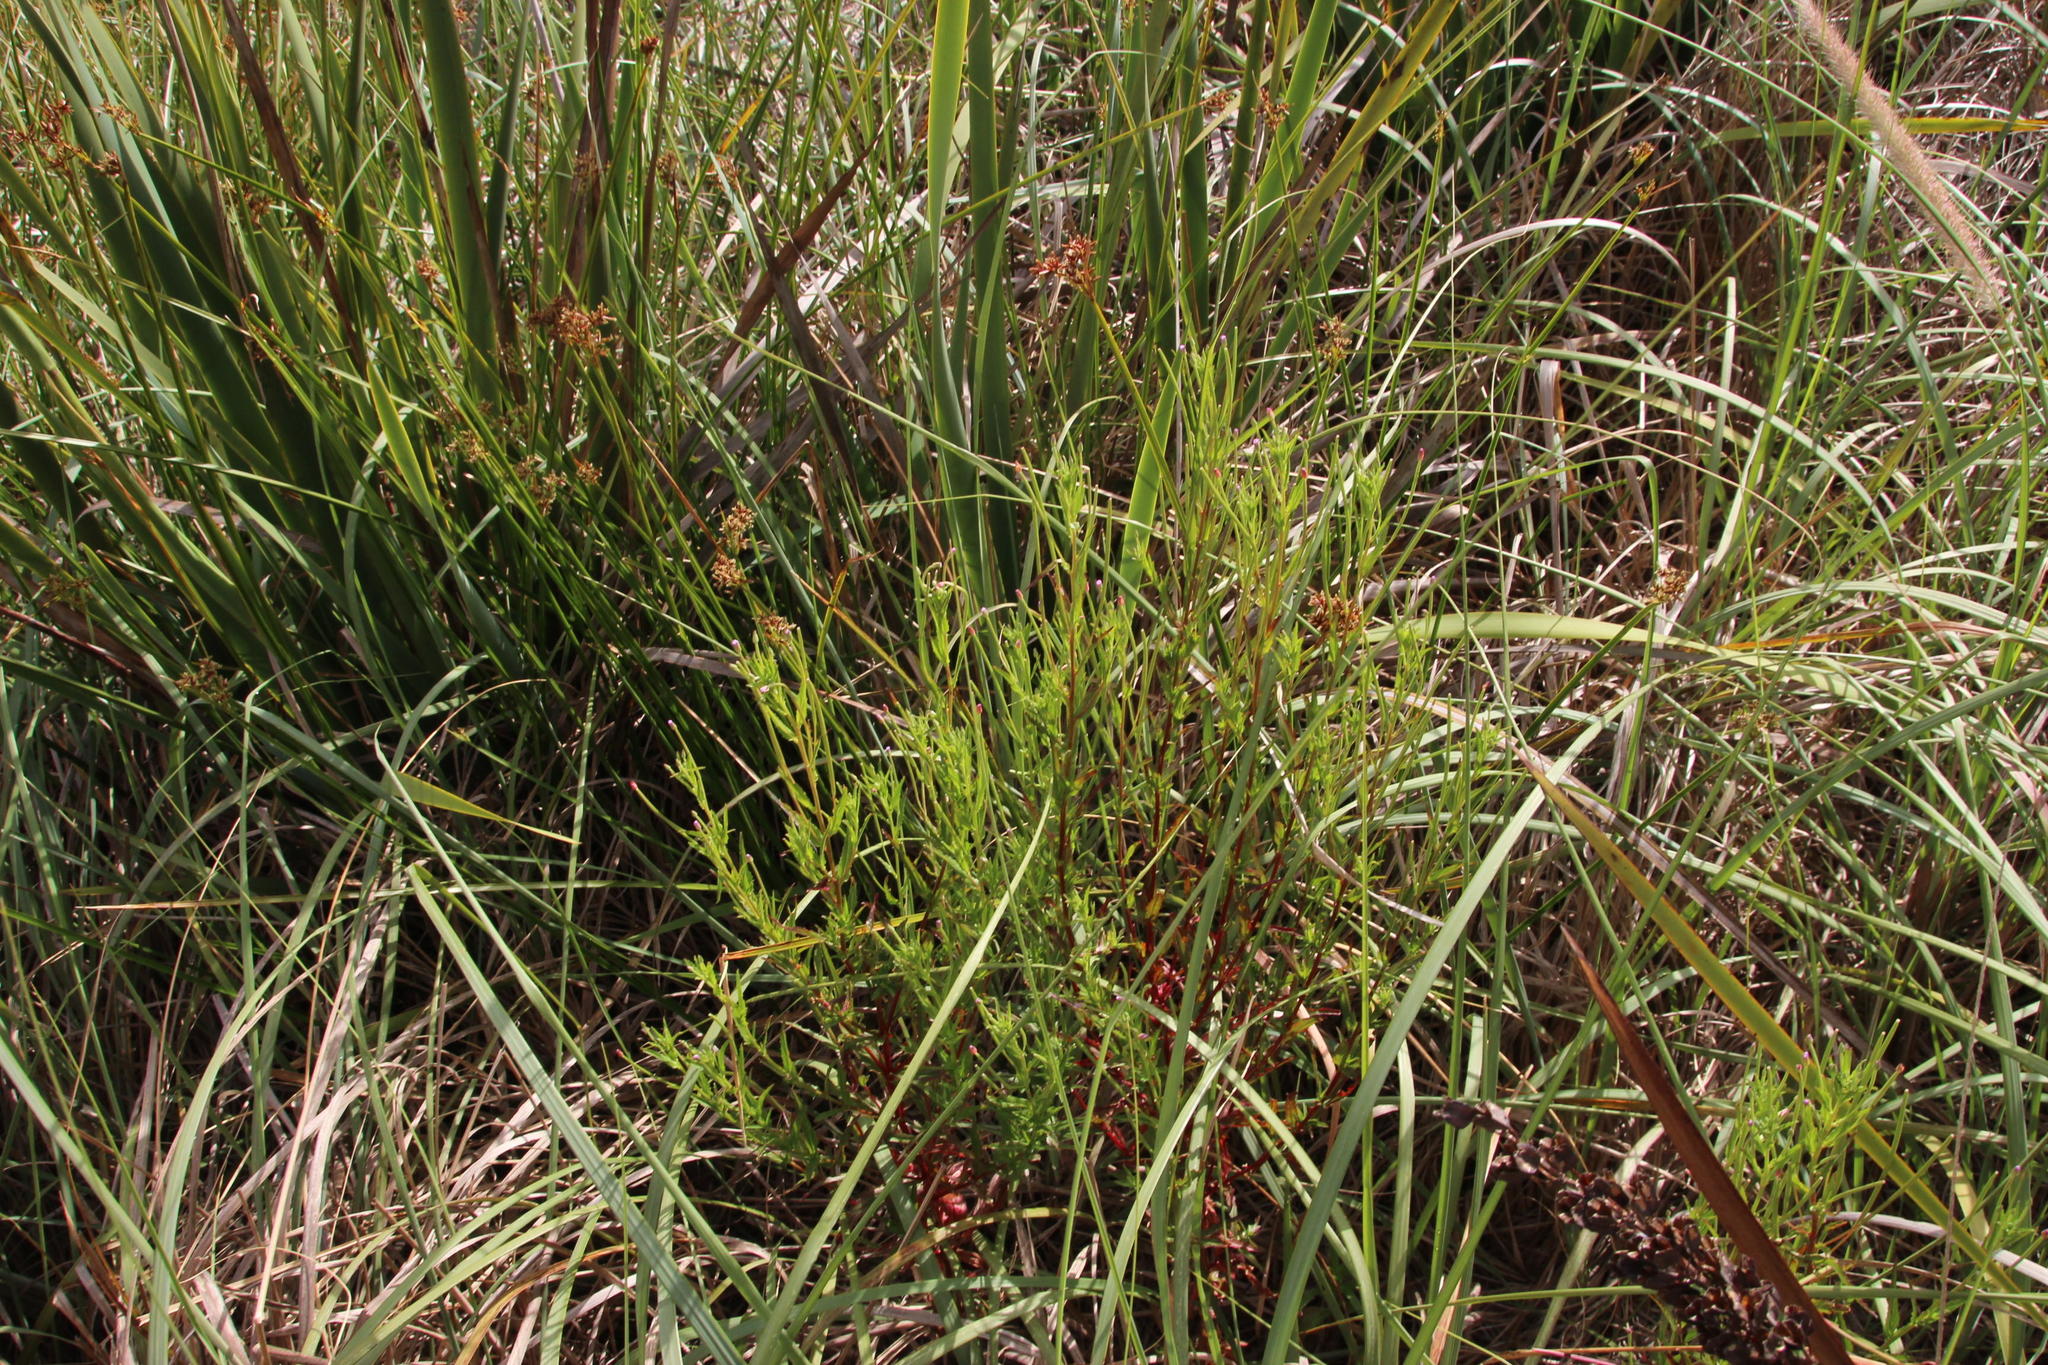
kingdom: Plantae
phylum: Tracheophyta
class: Magnoliopsida
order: Myrtales
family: Onagraceae
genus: Epilobium
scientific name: Epilobium tetragonum
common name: Square-stemmed willowherb
